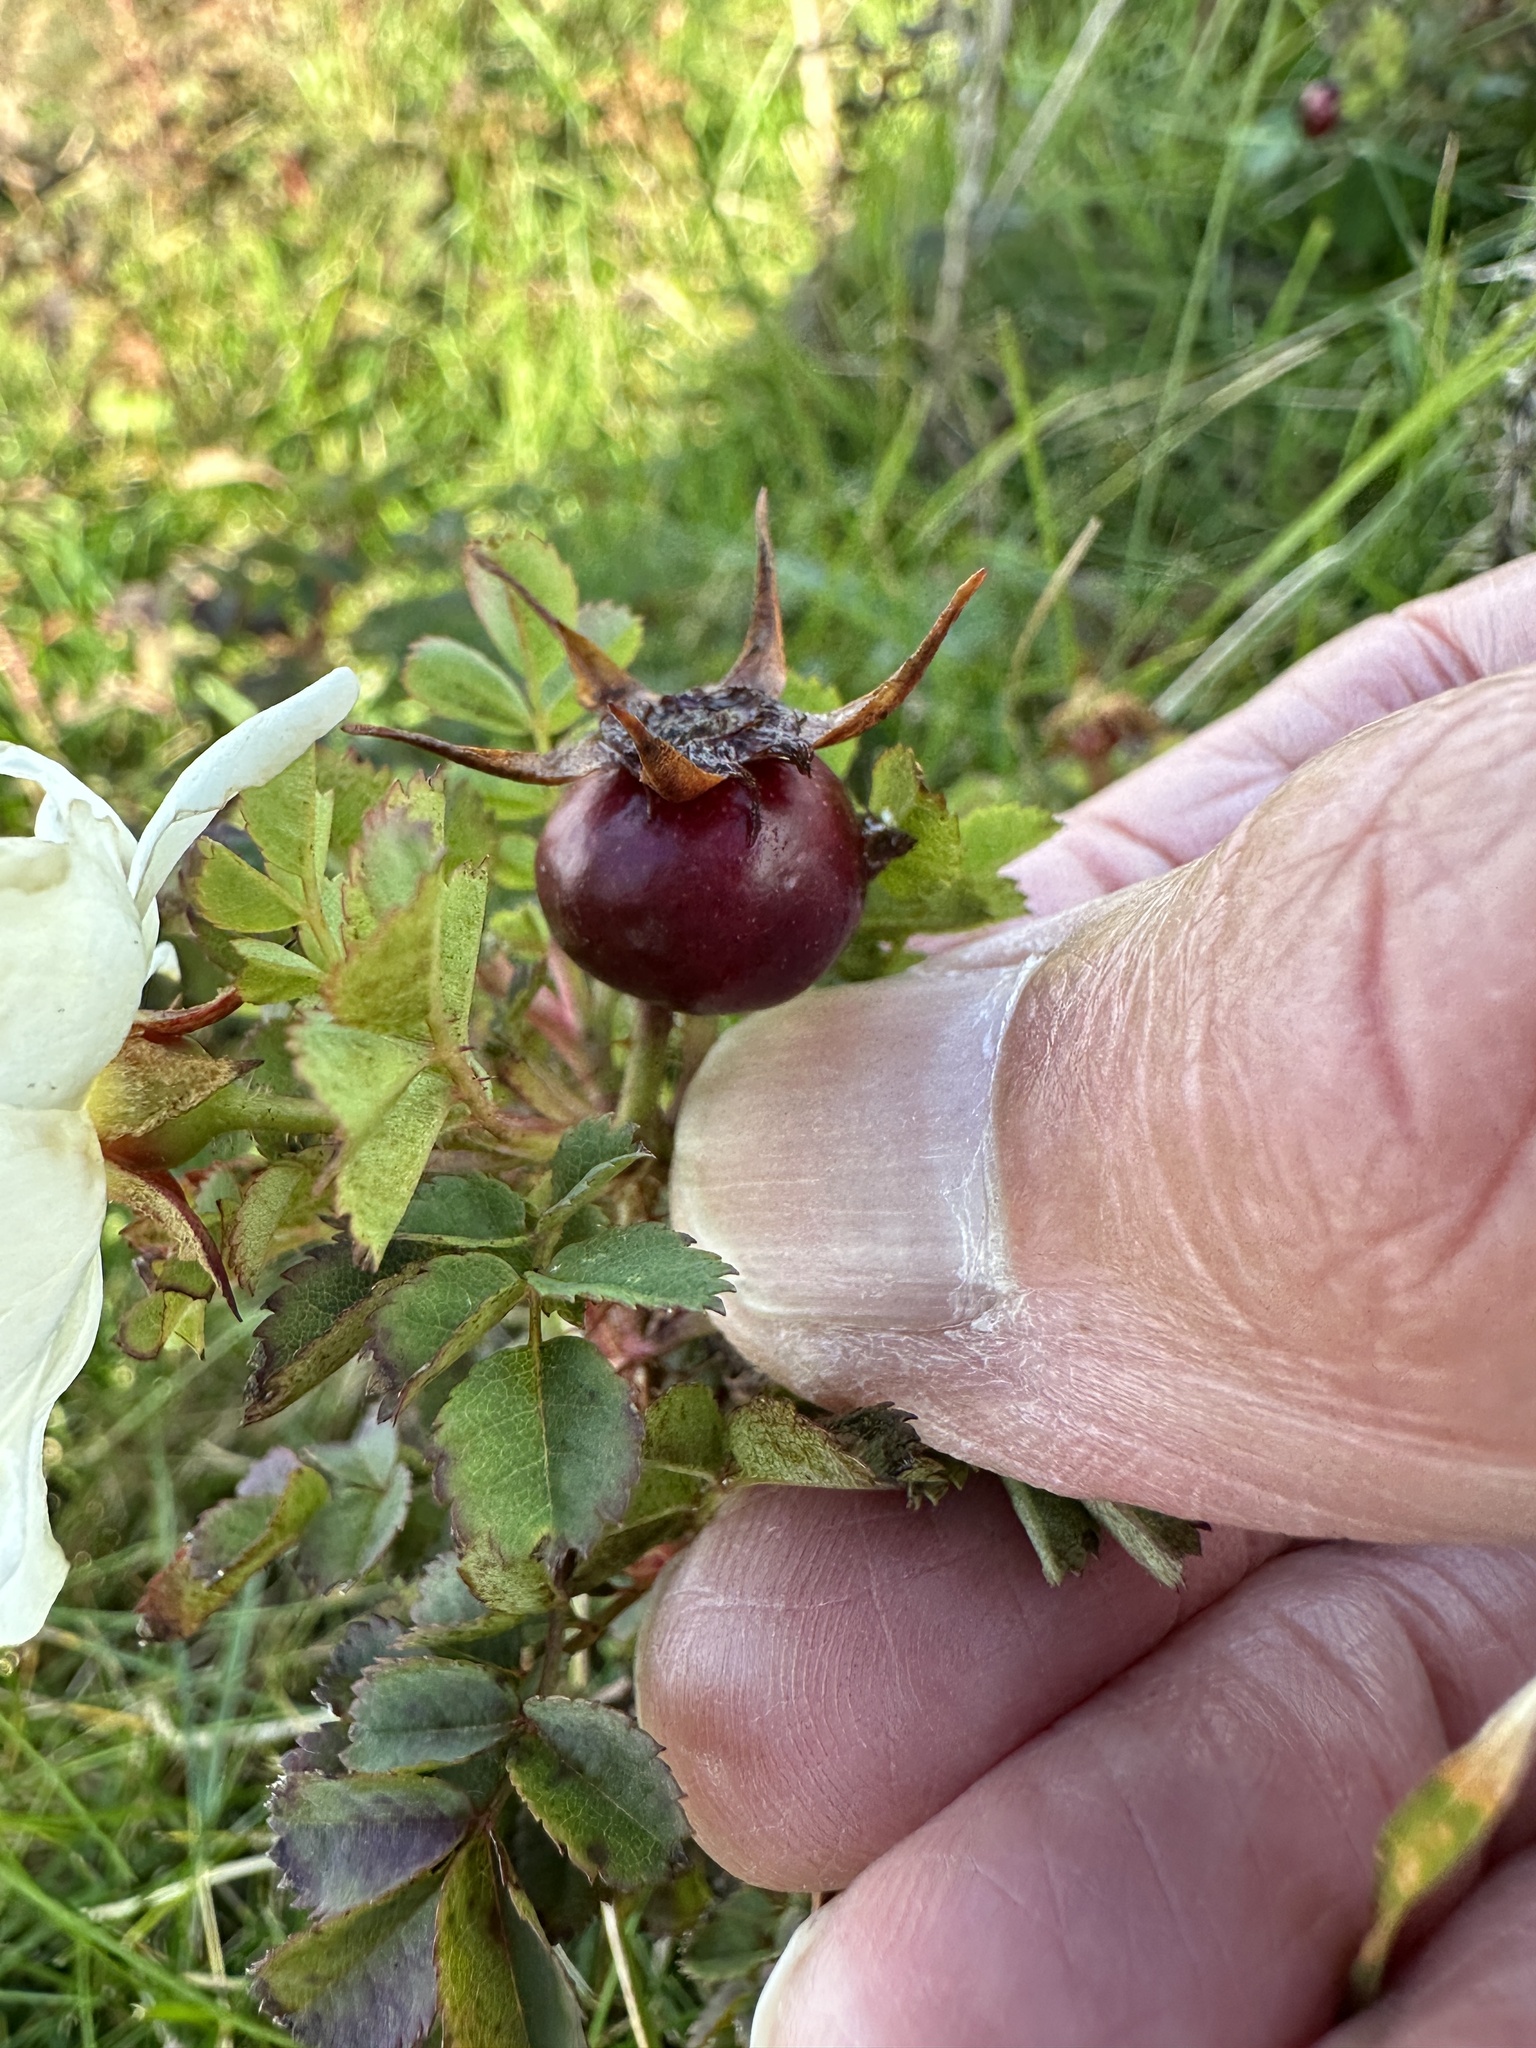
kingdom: Plantae
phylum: Tracheophyta
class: Magnoliopsida
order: Rosales
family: Rosaceae
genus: Rosa
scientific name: Rosa spinosissima
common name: Burnet rose
